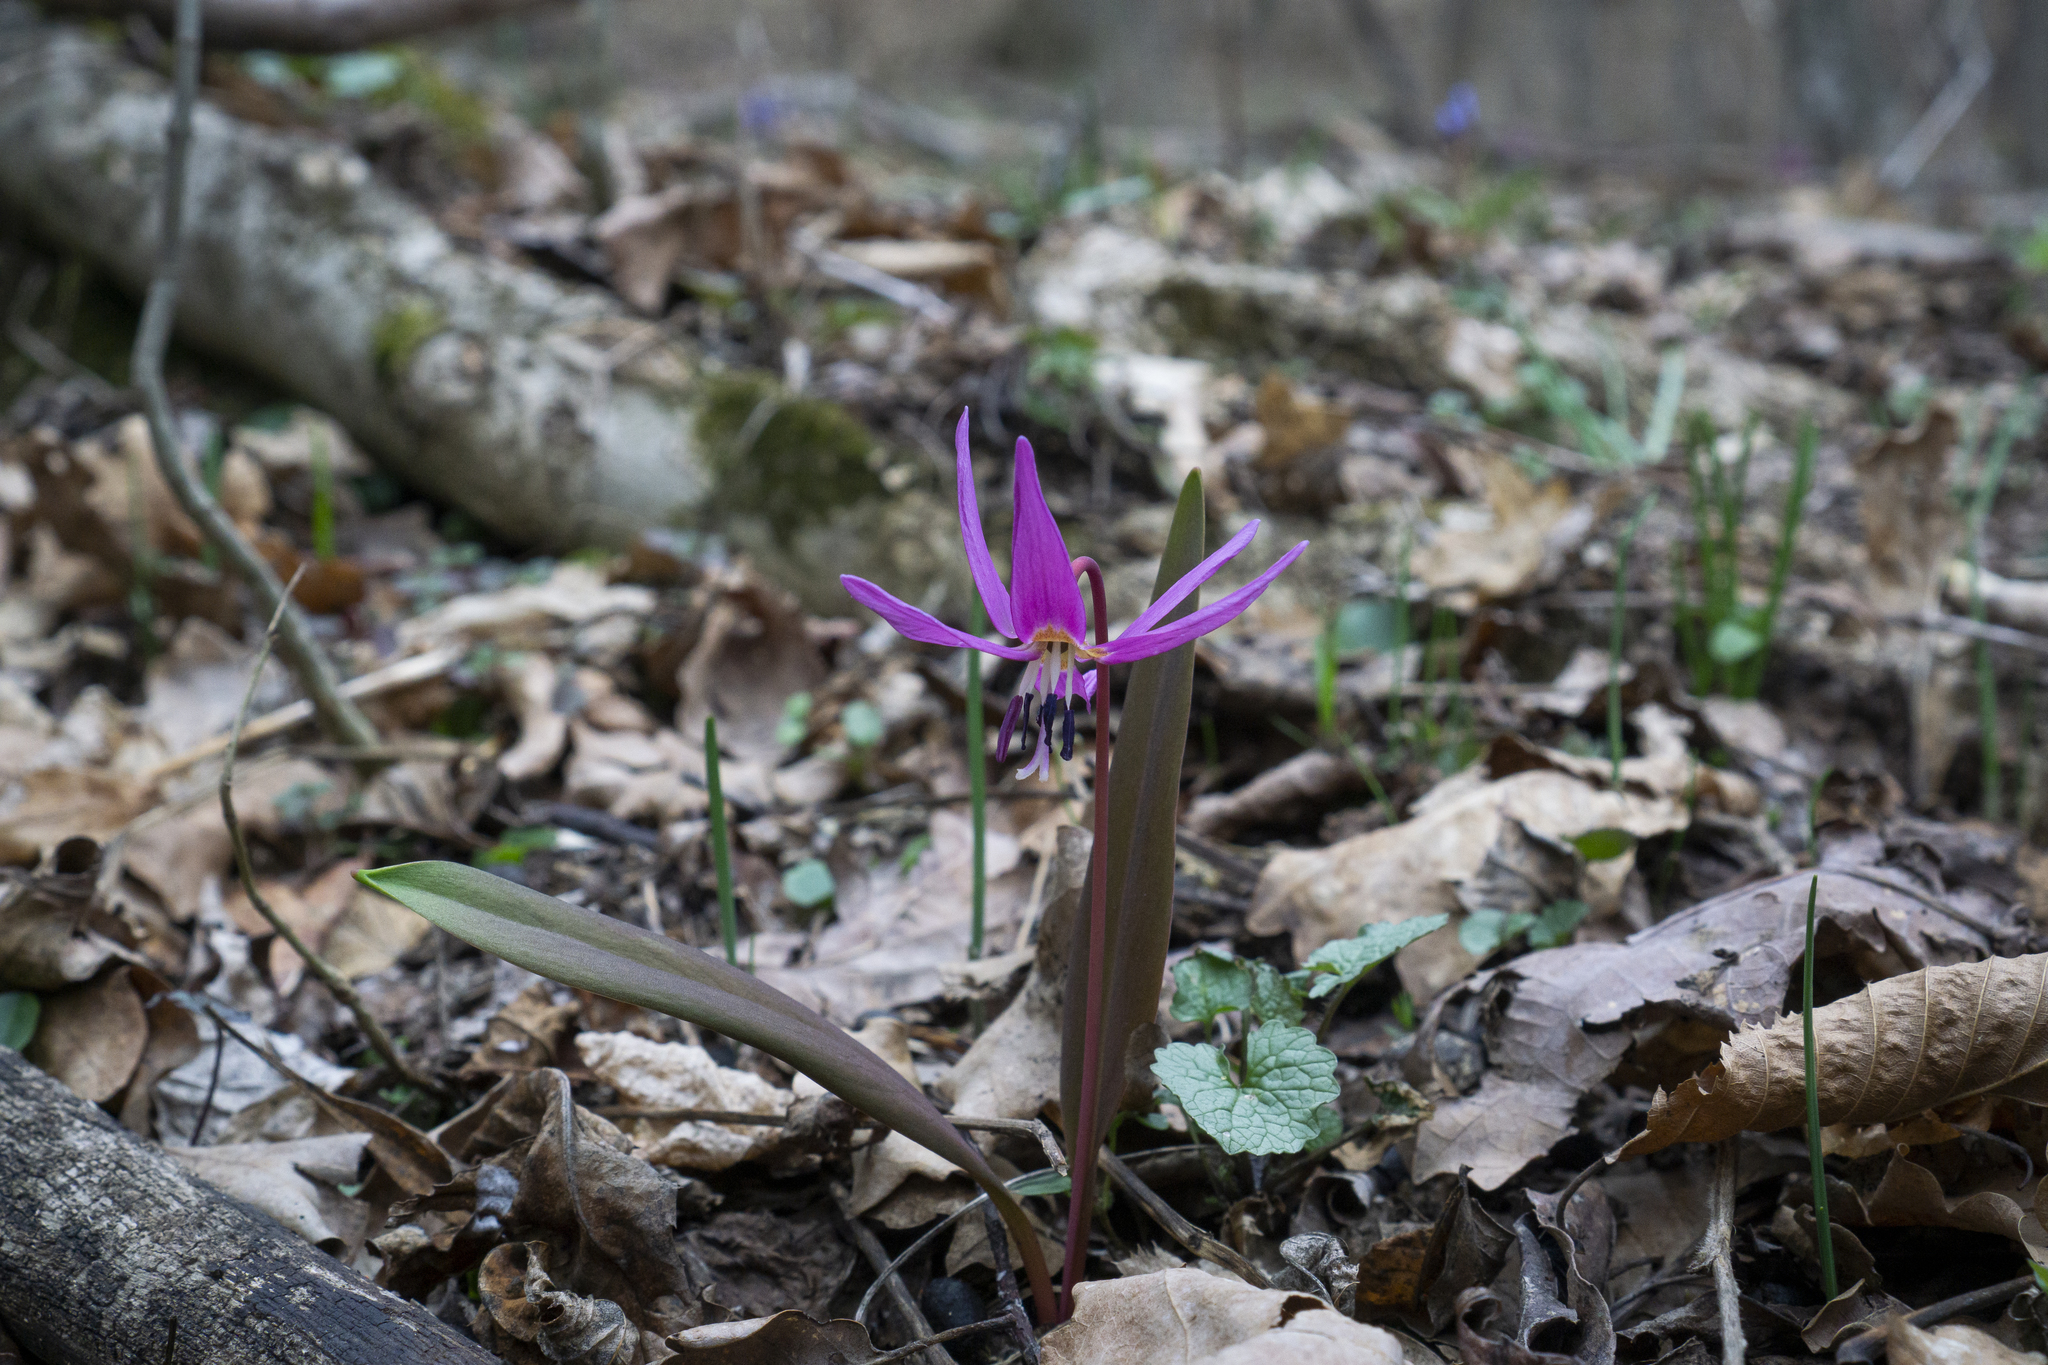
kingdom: Plantae
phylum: Tracheophyta
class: Liliopsida
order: Liliales
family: Liliaceae
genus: Erythronium
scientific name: Erythronium dens-canis
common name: Dog's-tooth-violet
